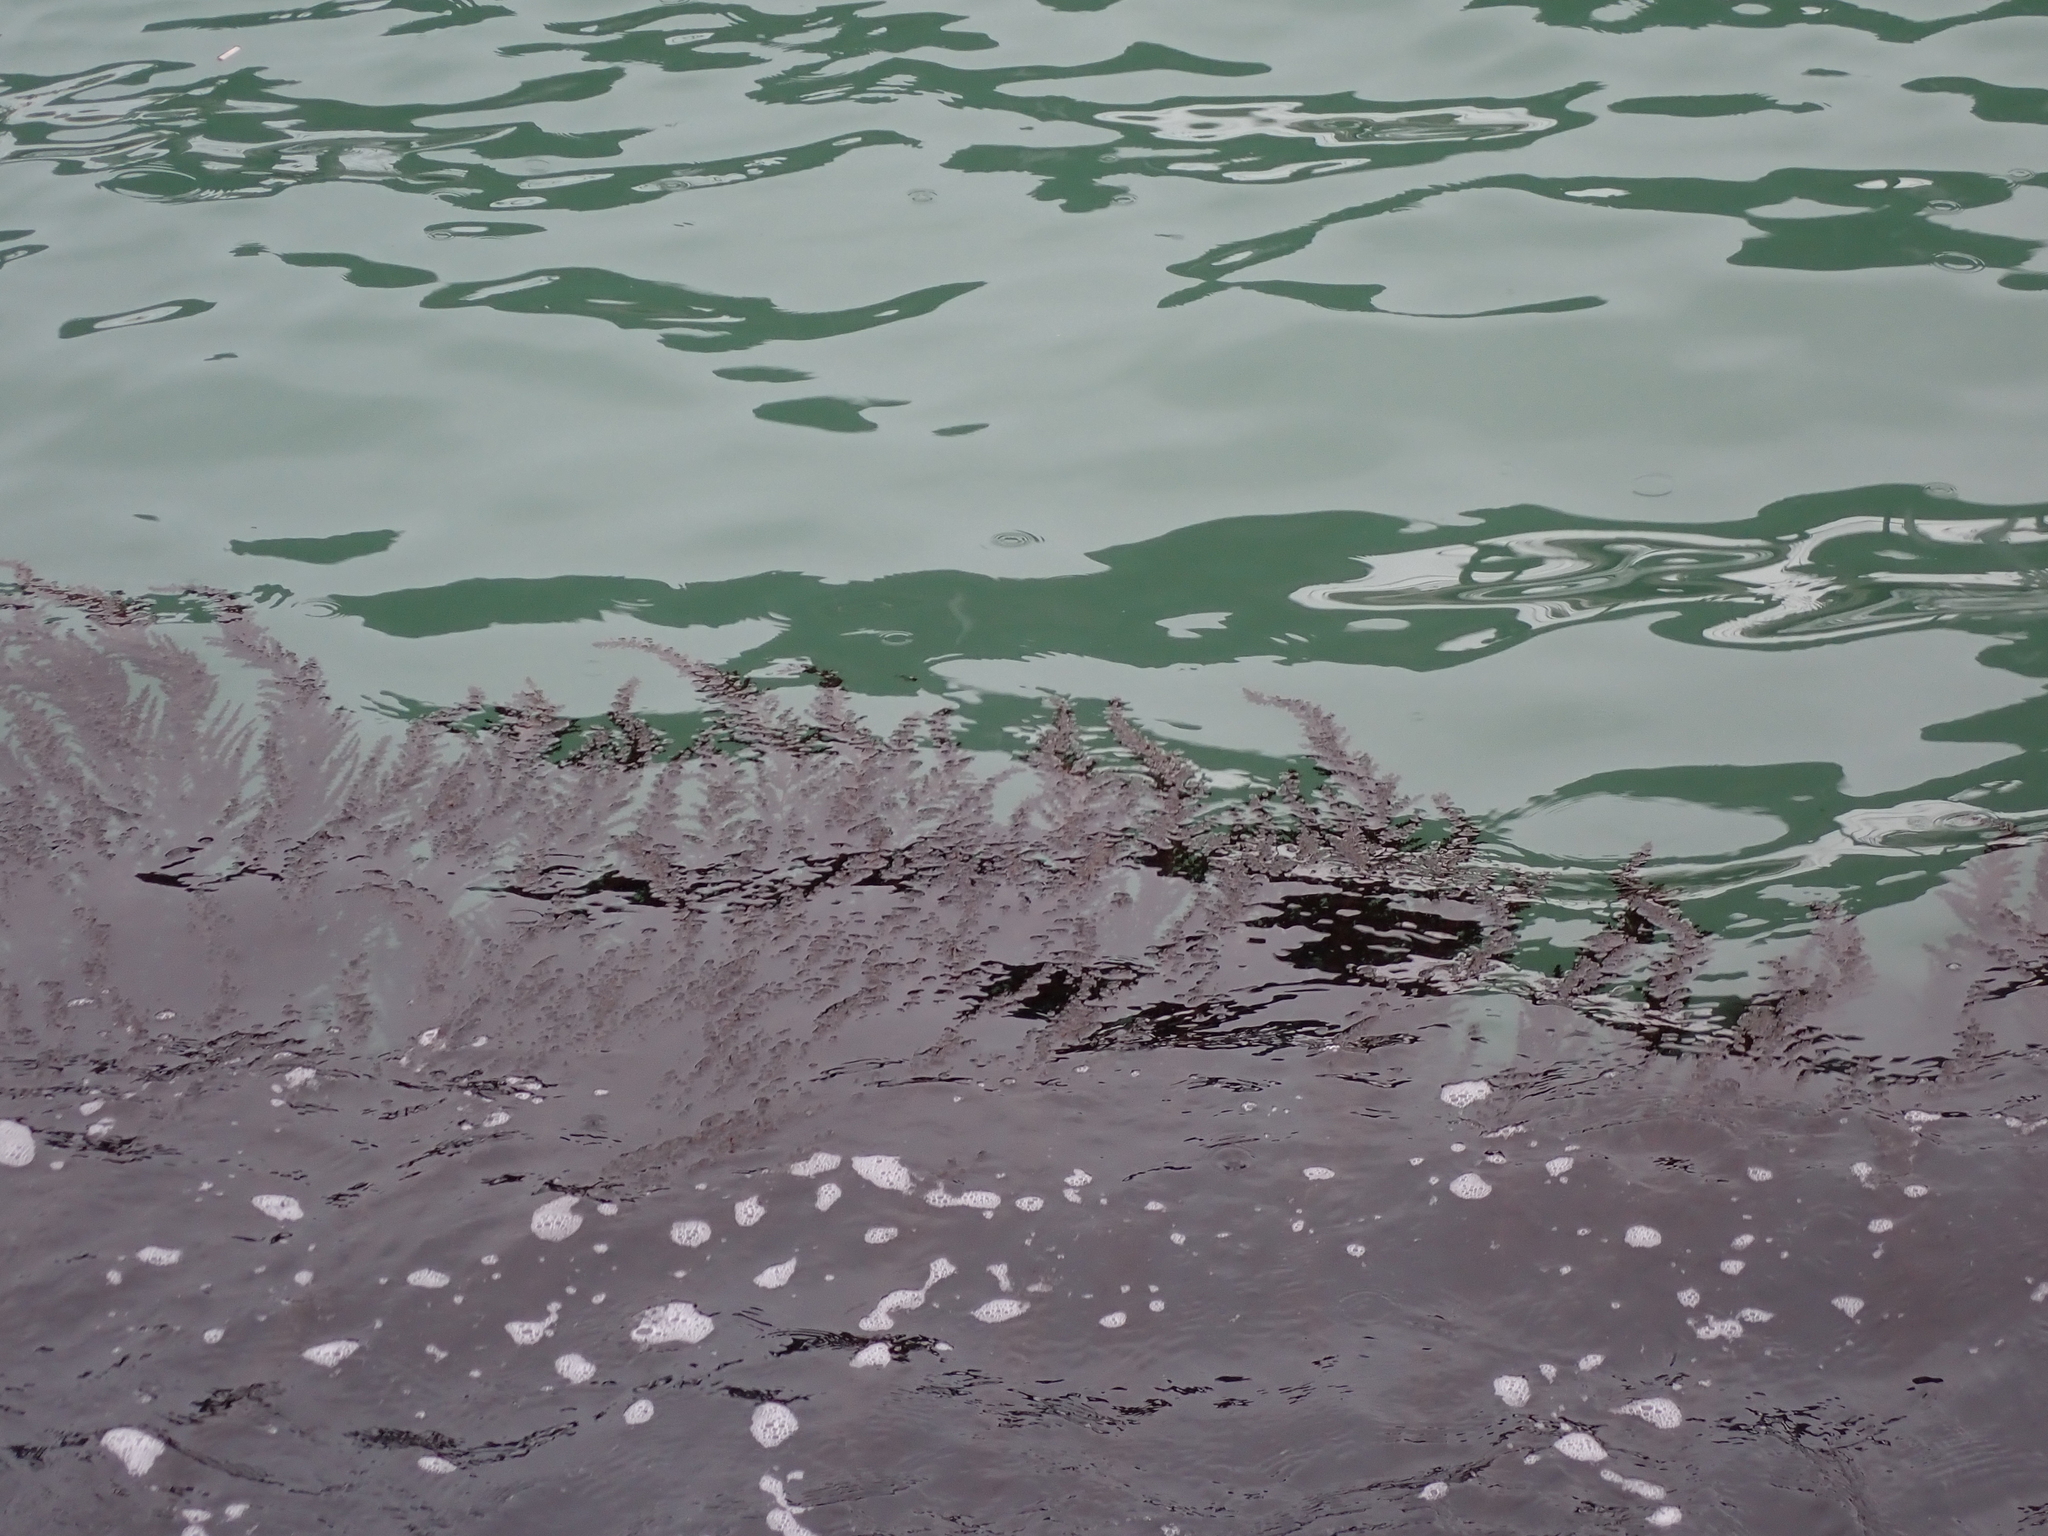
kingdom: Chromista
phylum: Ochrophyta
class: Phaeophyceae
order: Fucales
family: Sargassaceae
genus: Sargassum
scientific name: Sargassum muticum
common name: Japweed
